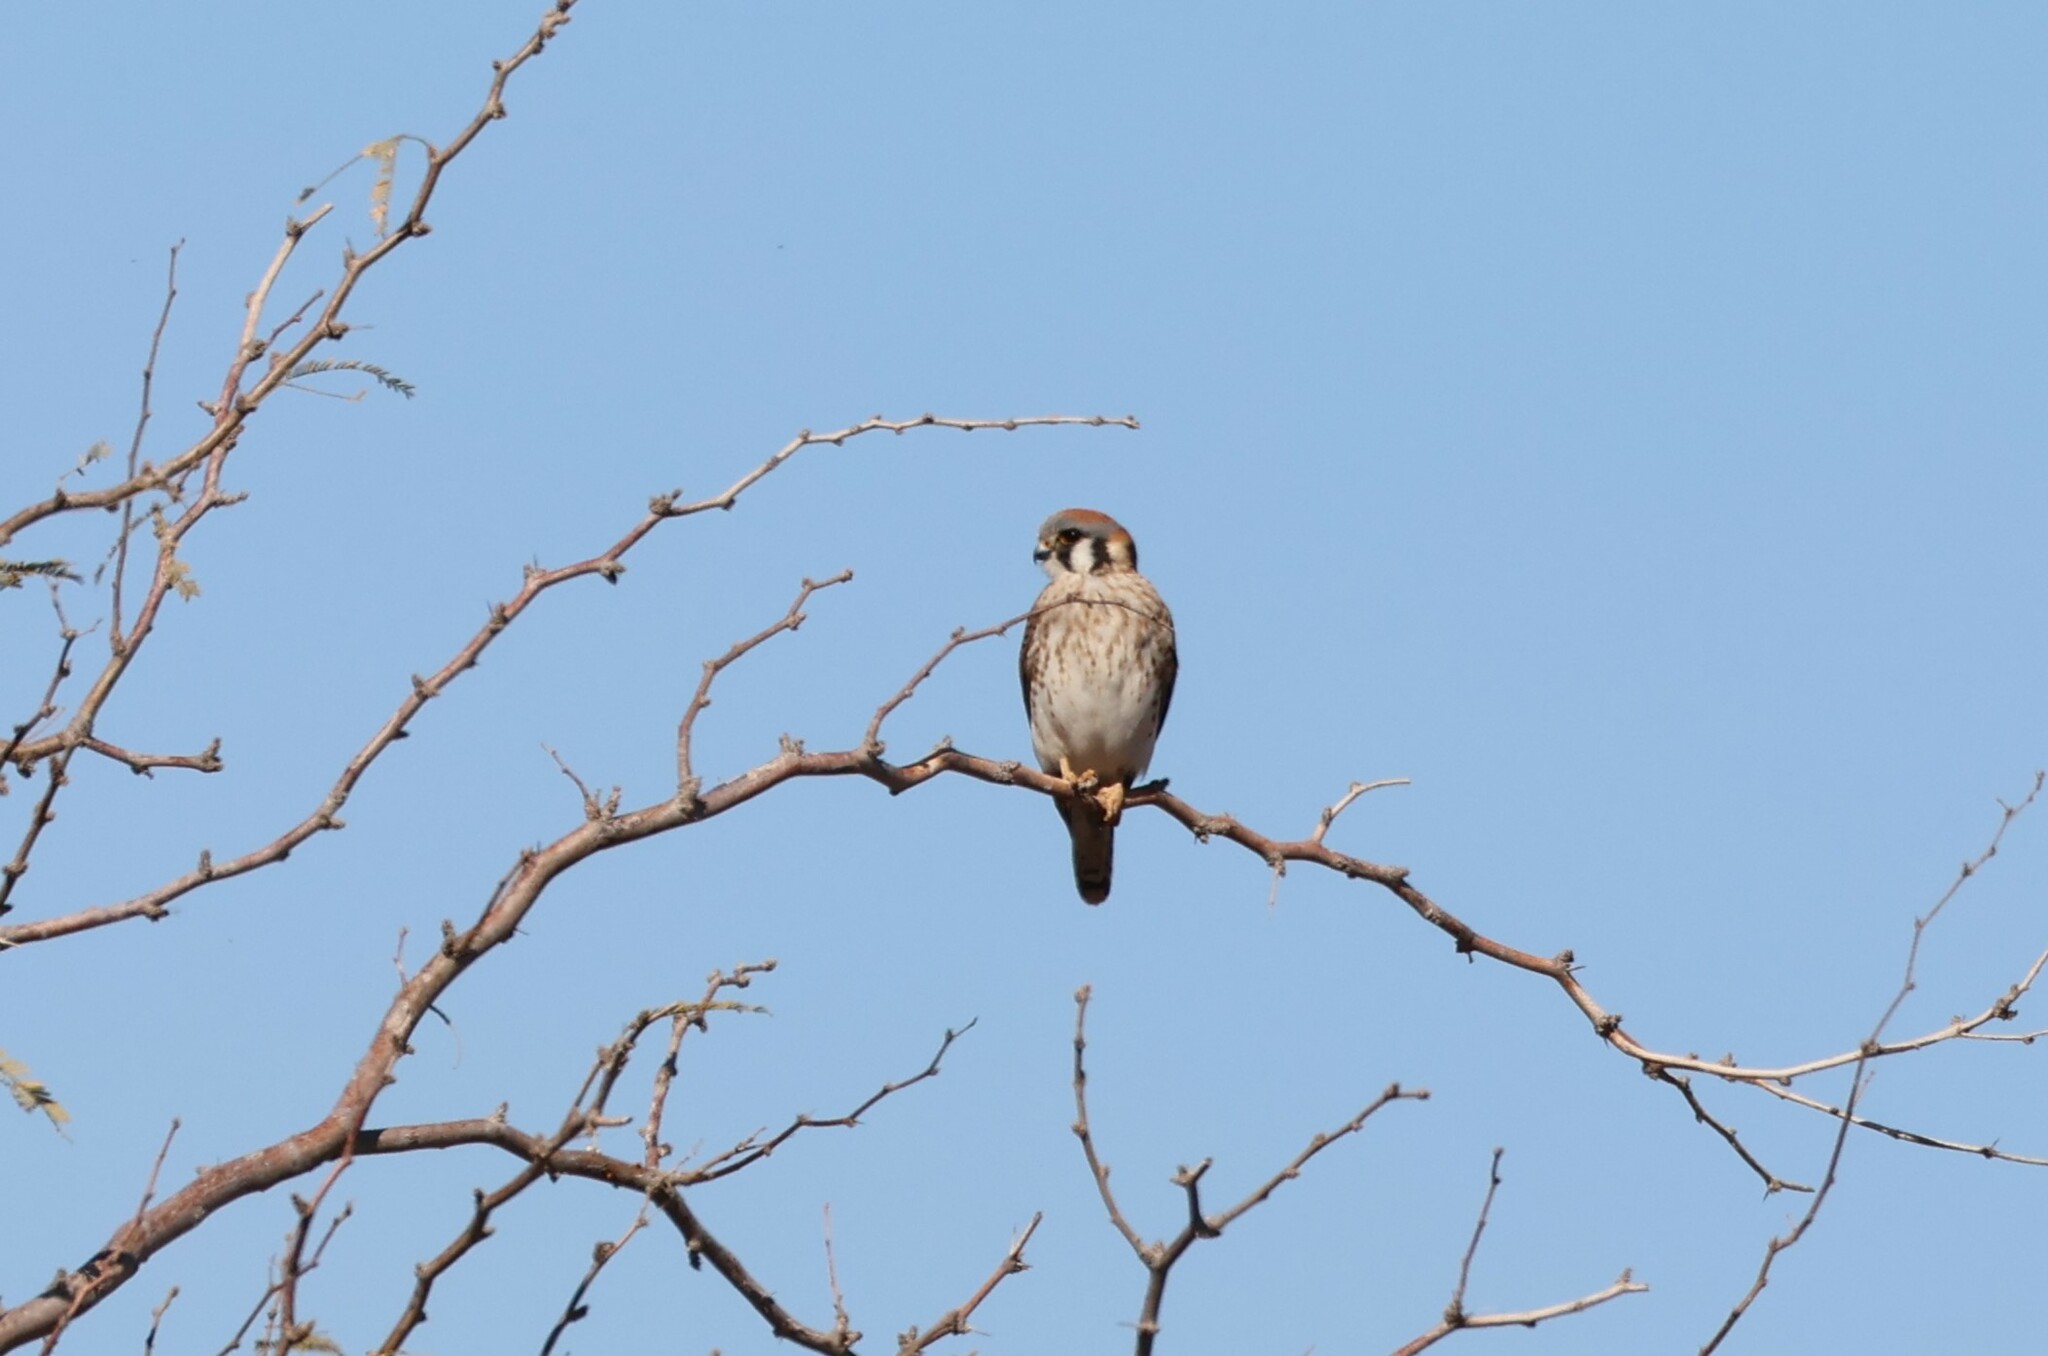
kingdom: Animalia
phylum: Chordata
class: Aves
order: Falconiformes
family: Falconidae
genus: Falco
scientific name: Falco sparverius
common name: American kestrel
